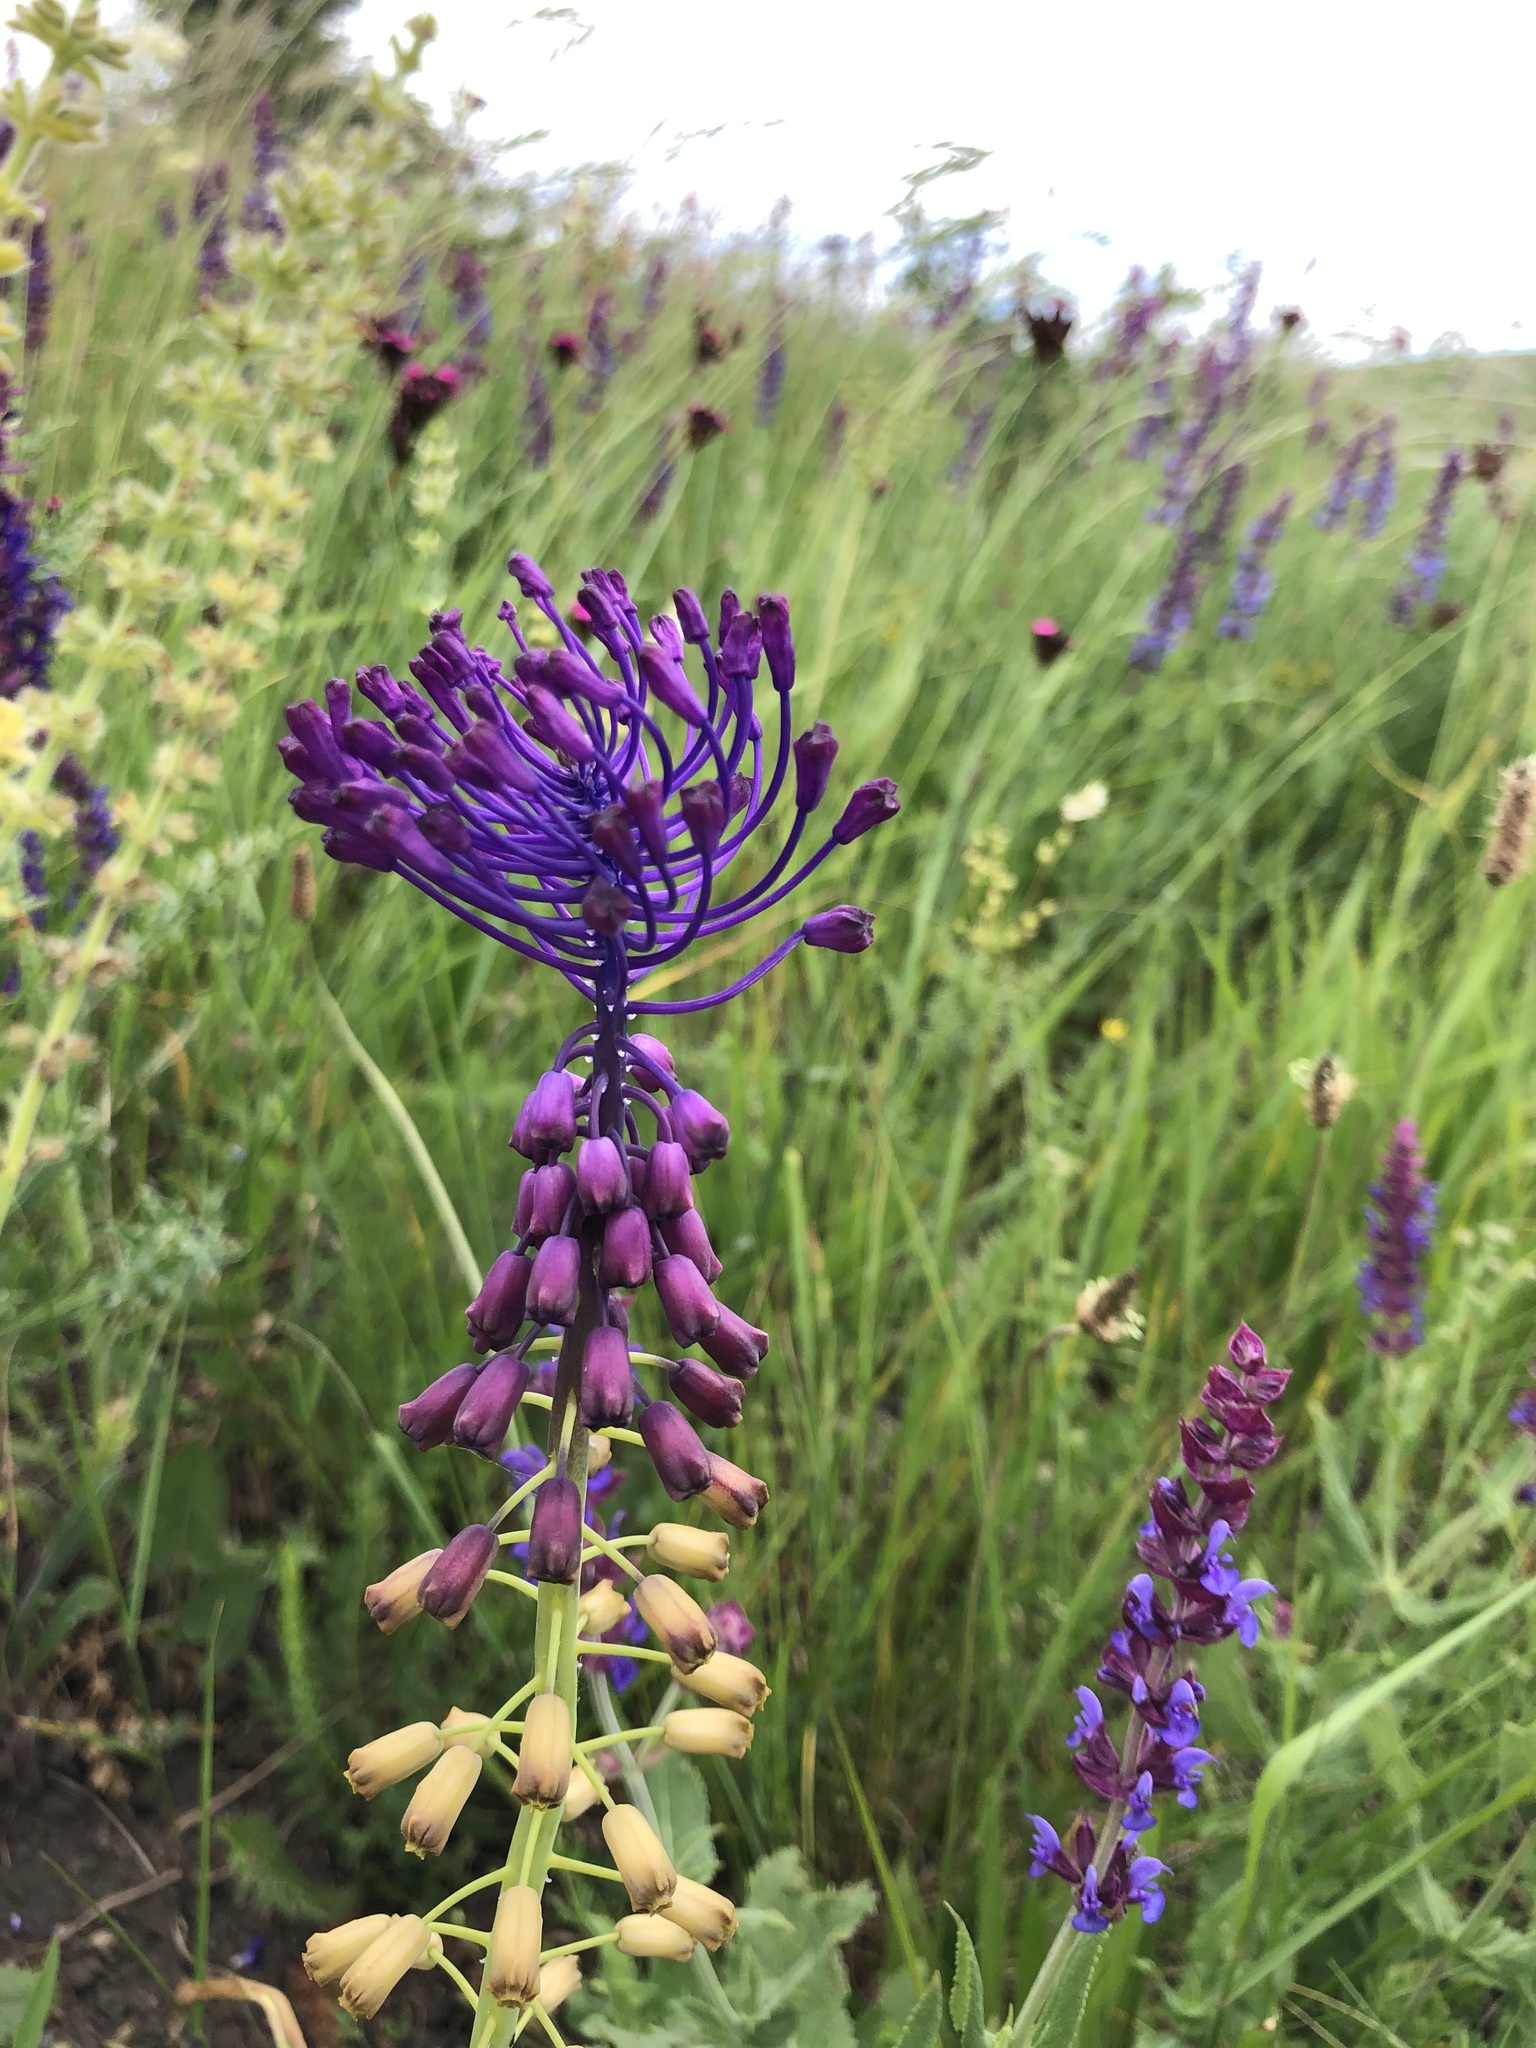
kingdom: Plantae
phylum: Tracheophyta
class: Liliopsida
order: Asparagales
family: Asparagaceae
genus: Muscari
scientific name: Muscari comosum
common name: Tassel hyacinth
